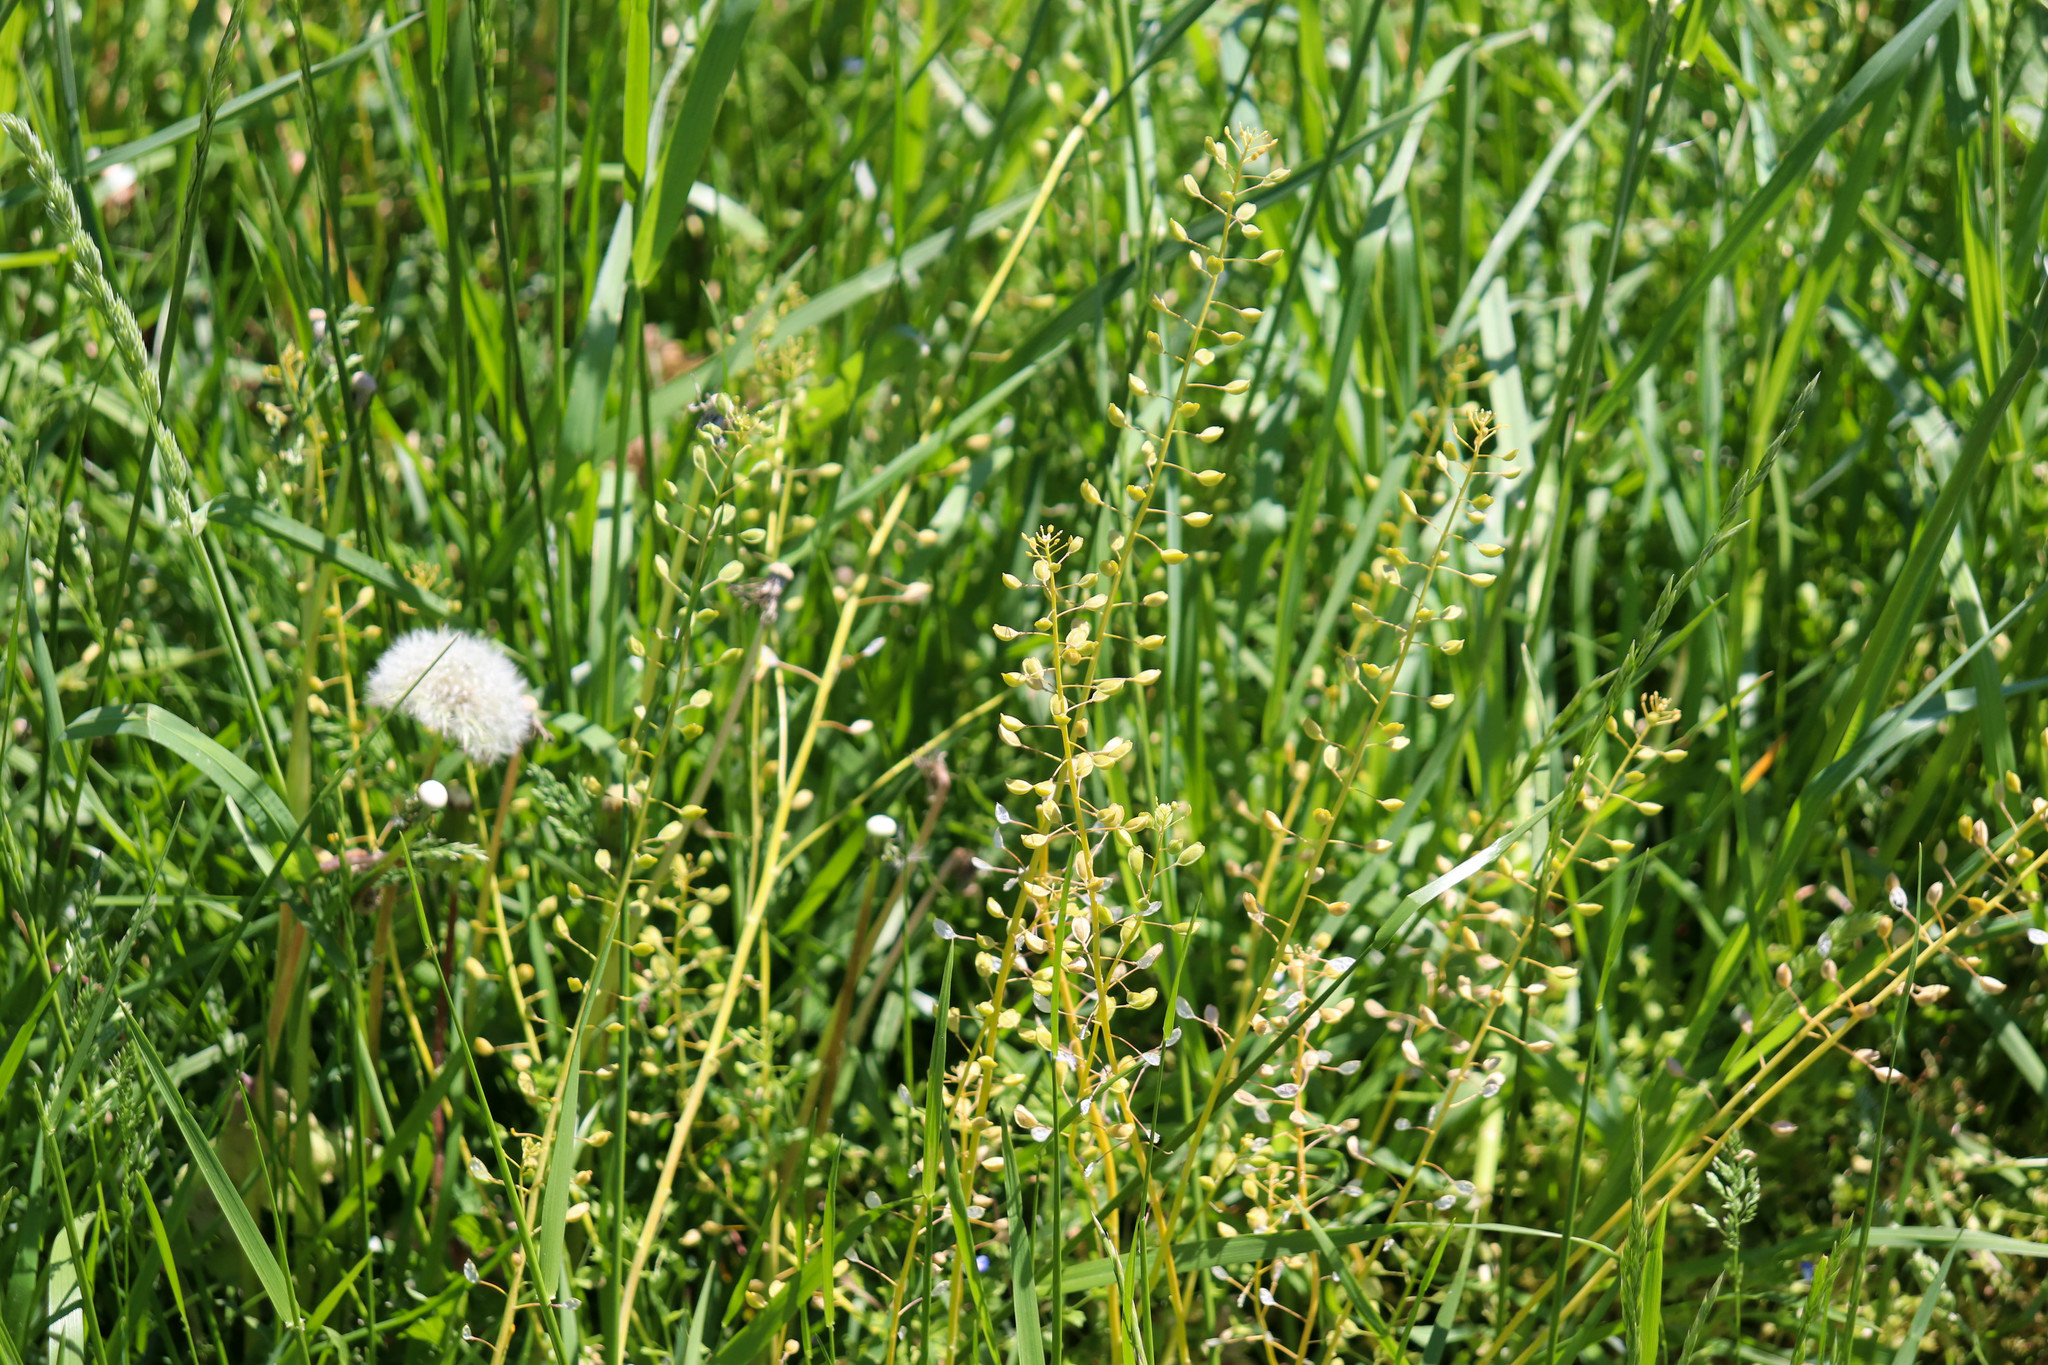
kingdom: Plantae
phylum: Tracheophyta
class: Magnoliopsida
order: Brassicales
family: Brassicaceae
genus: Mummenhoffia
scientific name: Mummenhoffia alliacea
